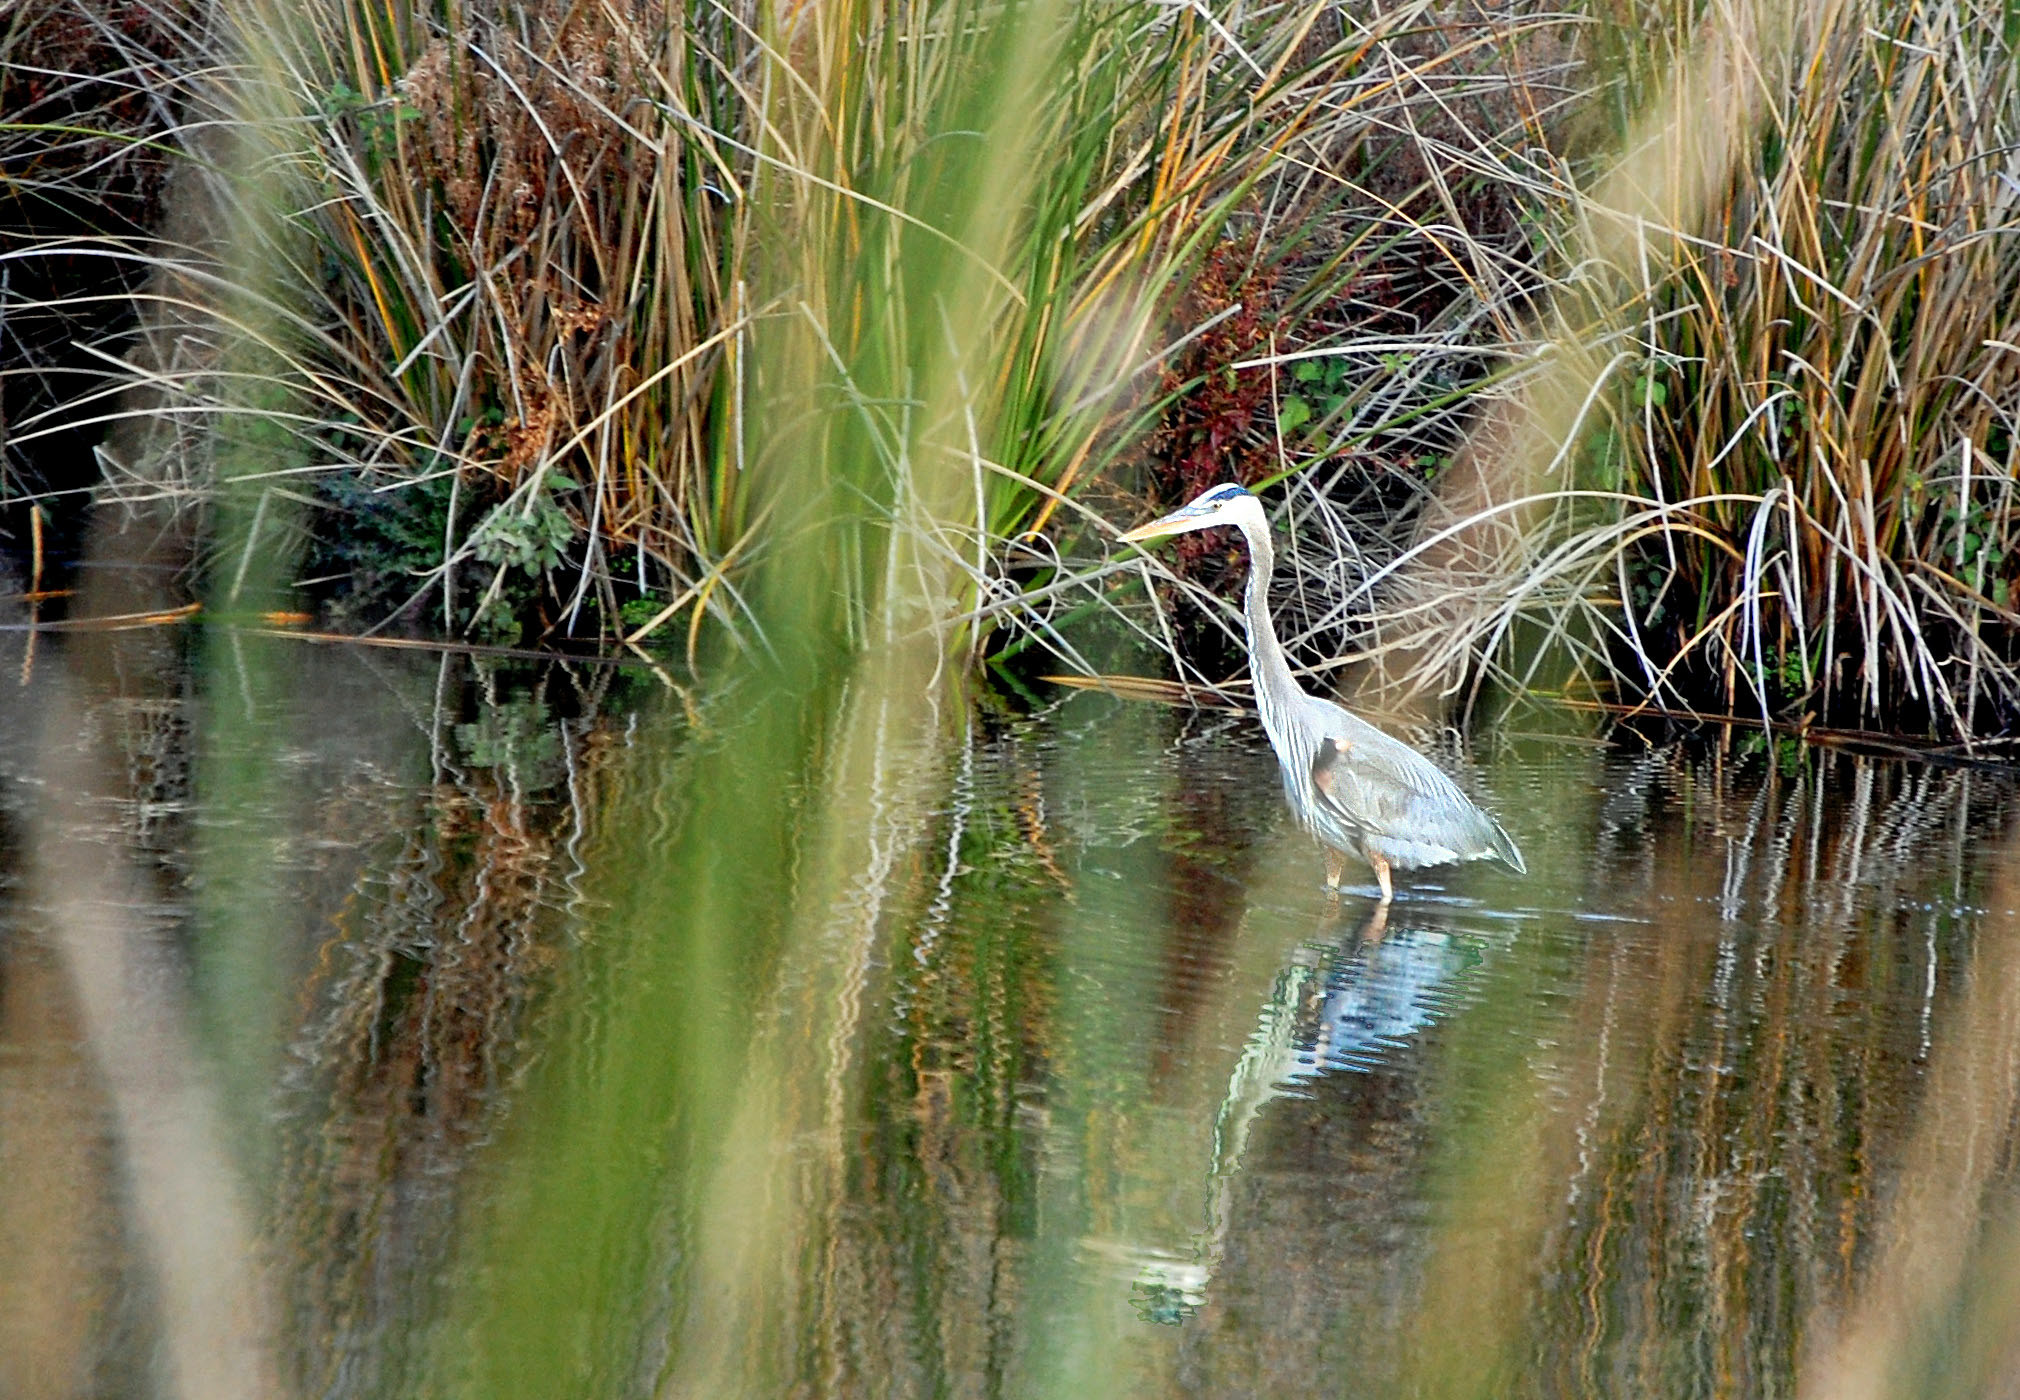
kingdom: Animalia
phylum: Chordata
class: Aves
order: Pelecaniformes
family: Ardeidae
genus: Ardea
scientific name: Ardea herodias
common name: Great blue heron
